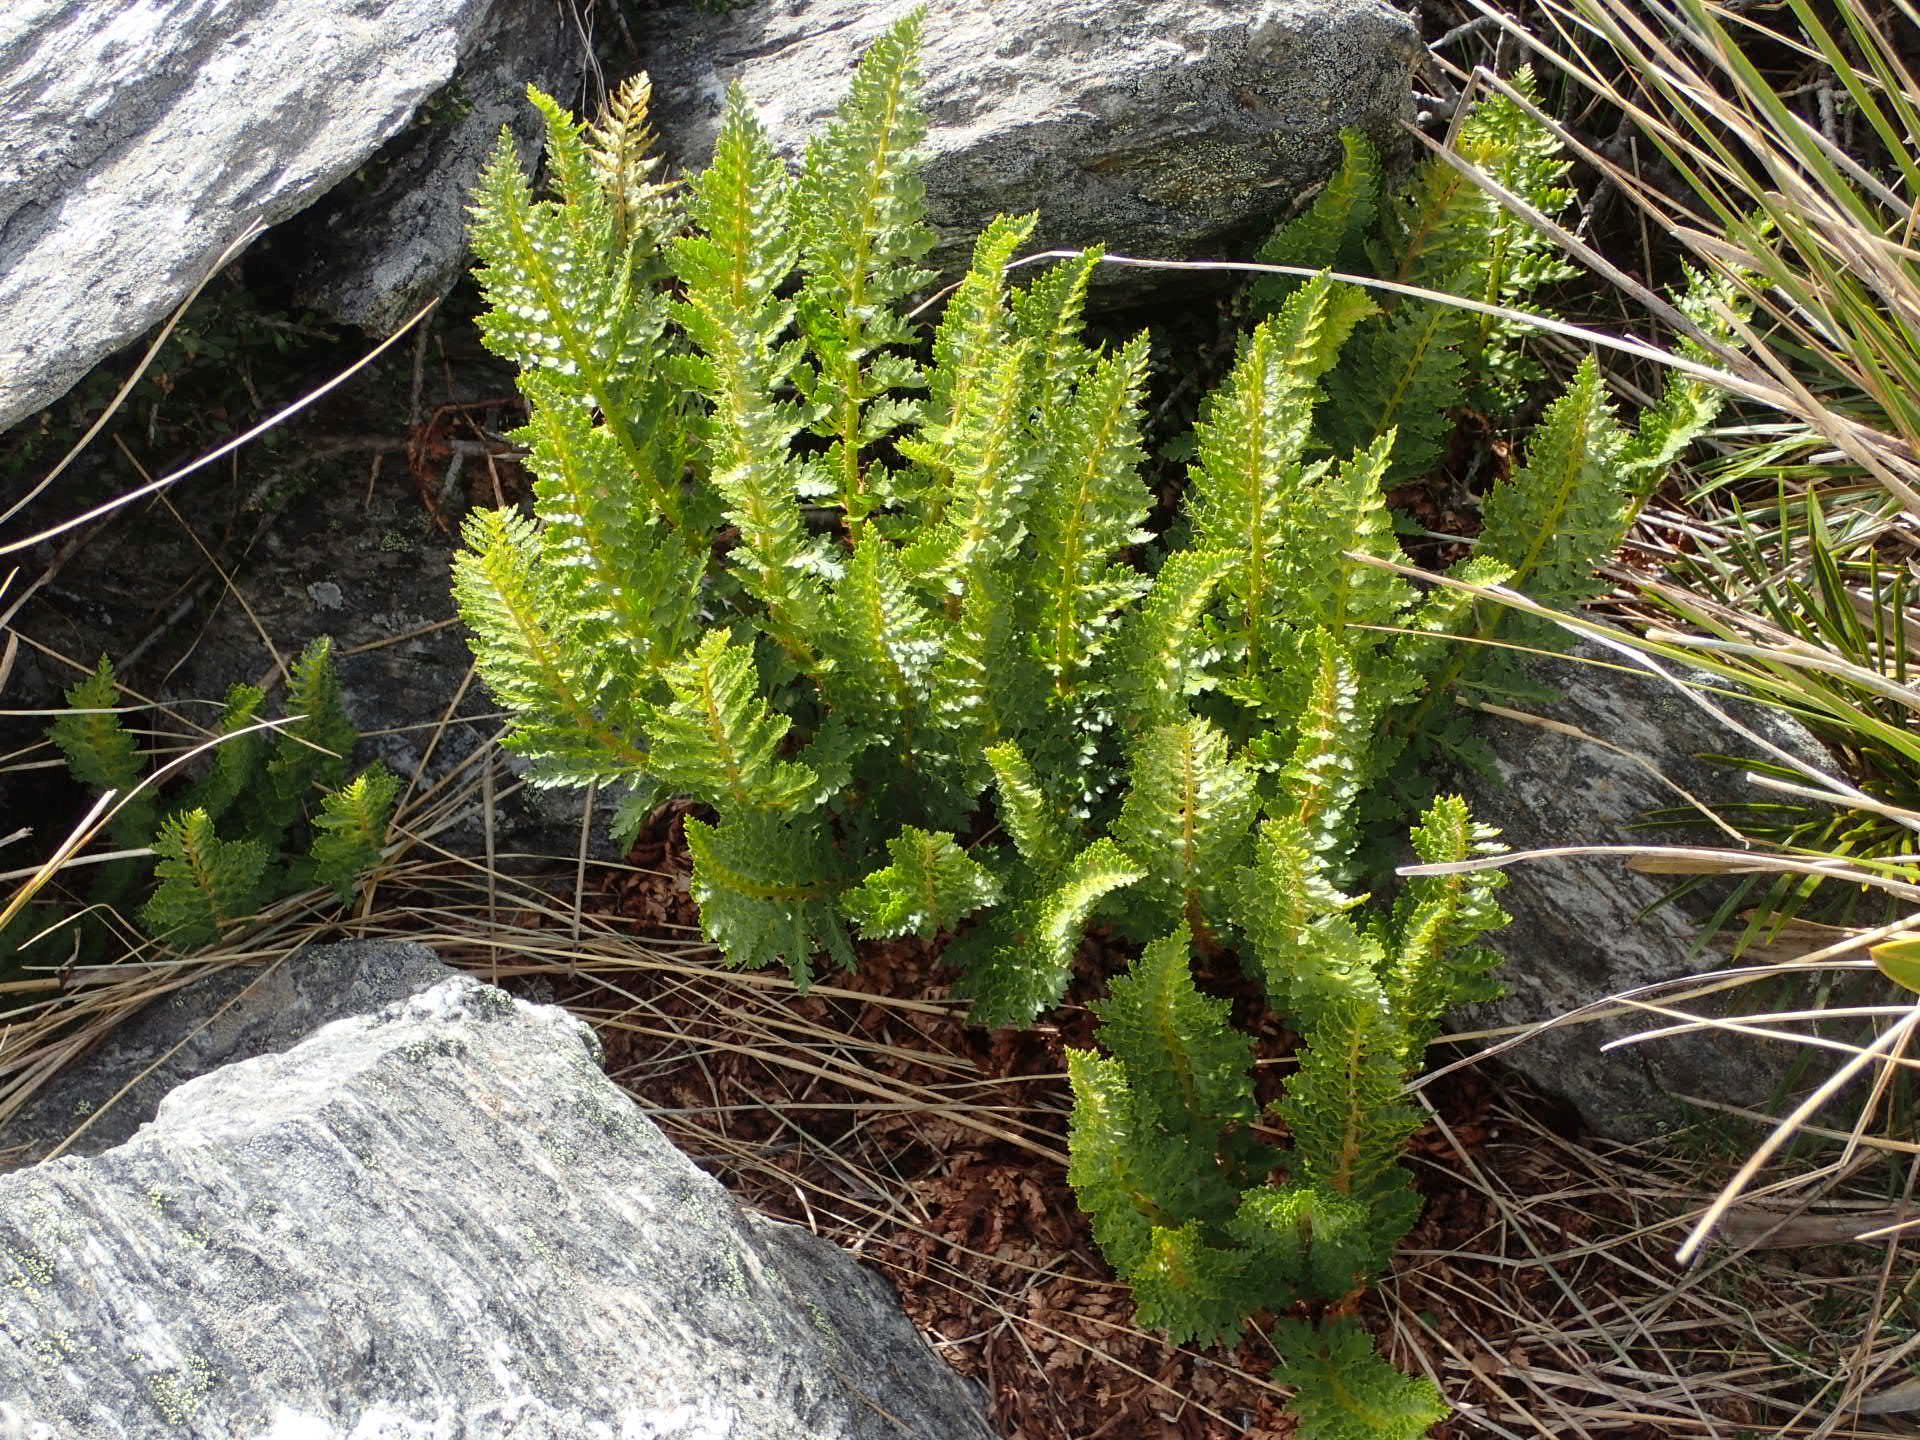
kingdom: Plantae
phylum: Tracheophyta
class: Polypodiopsida
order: Polypodiales
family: Dryopteridaceae
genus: Polystichum
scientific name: Polystichum cystostegia
